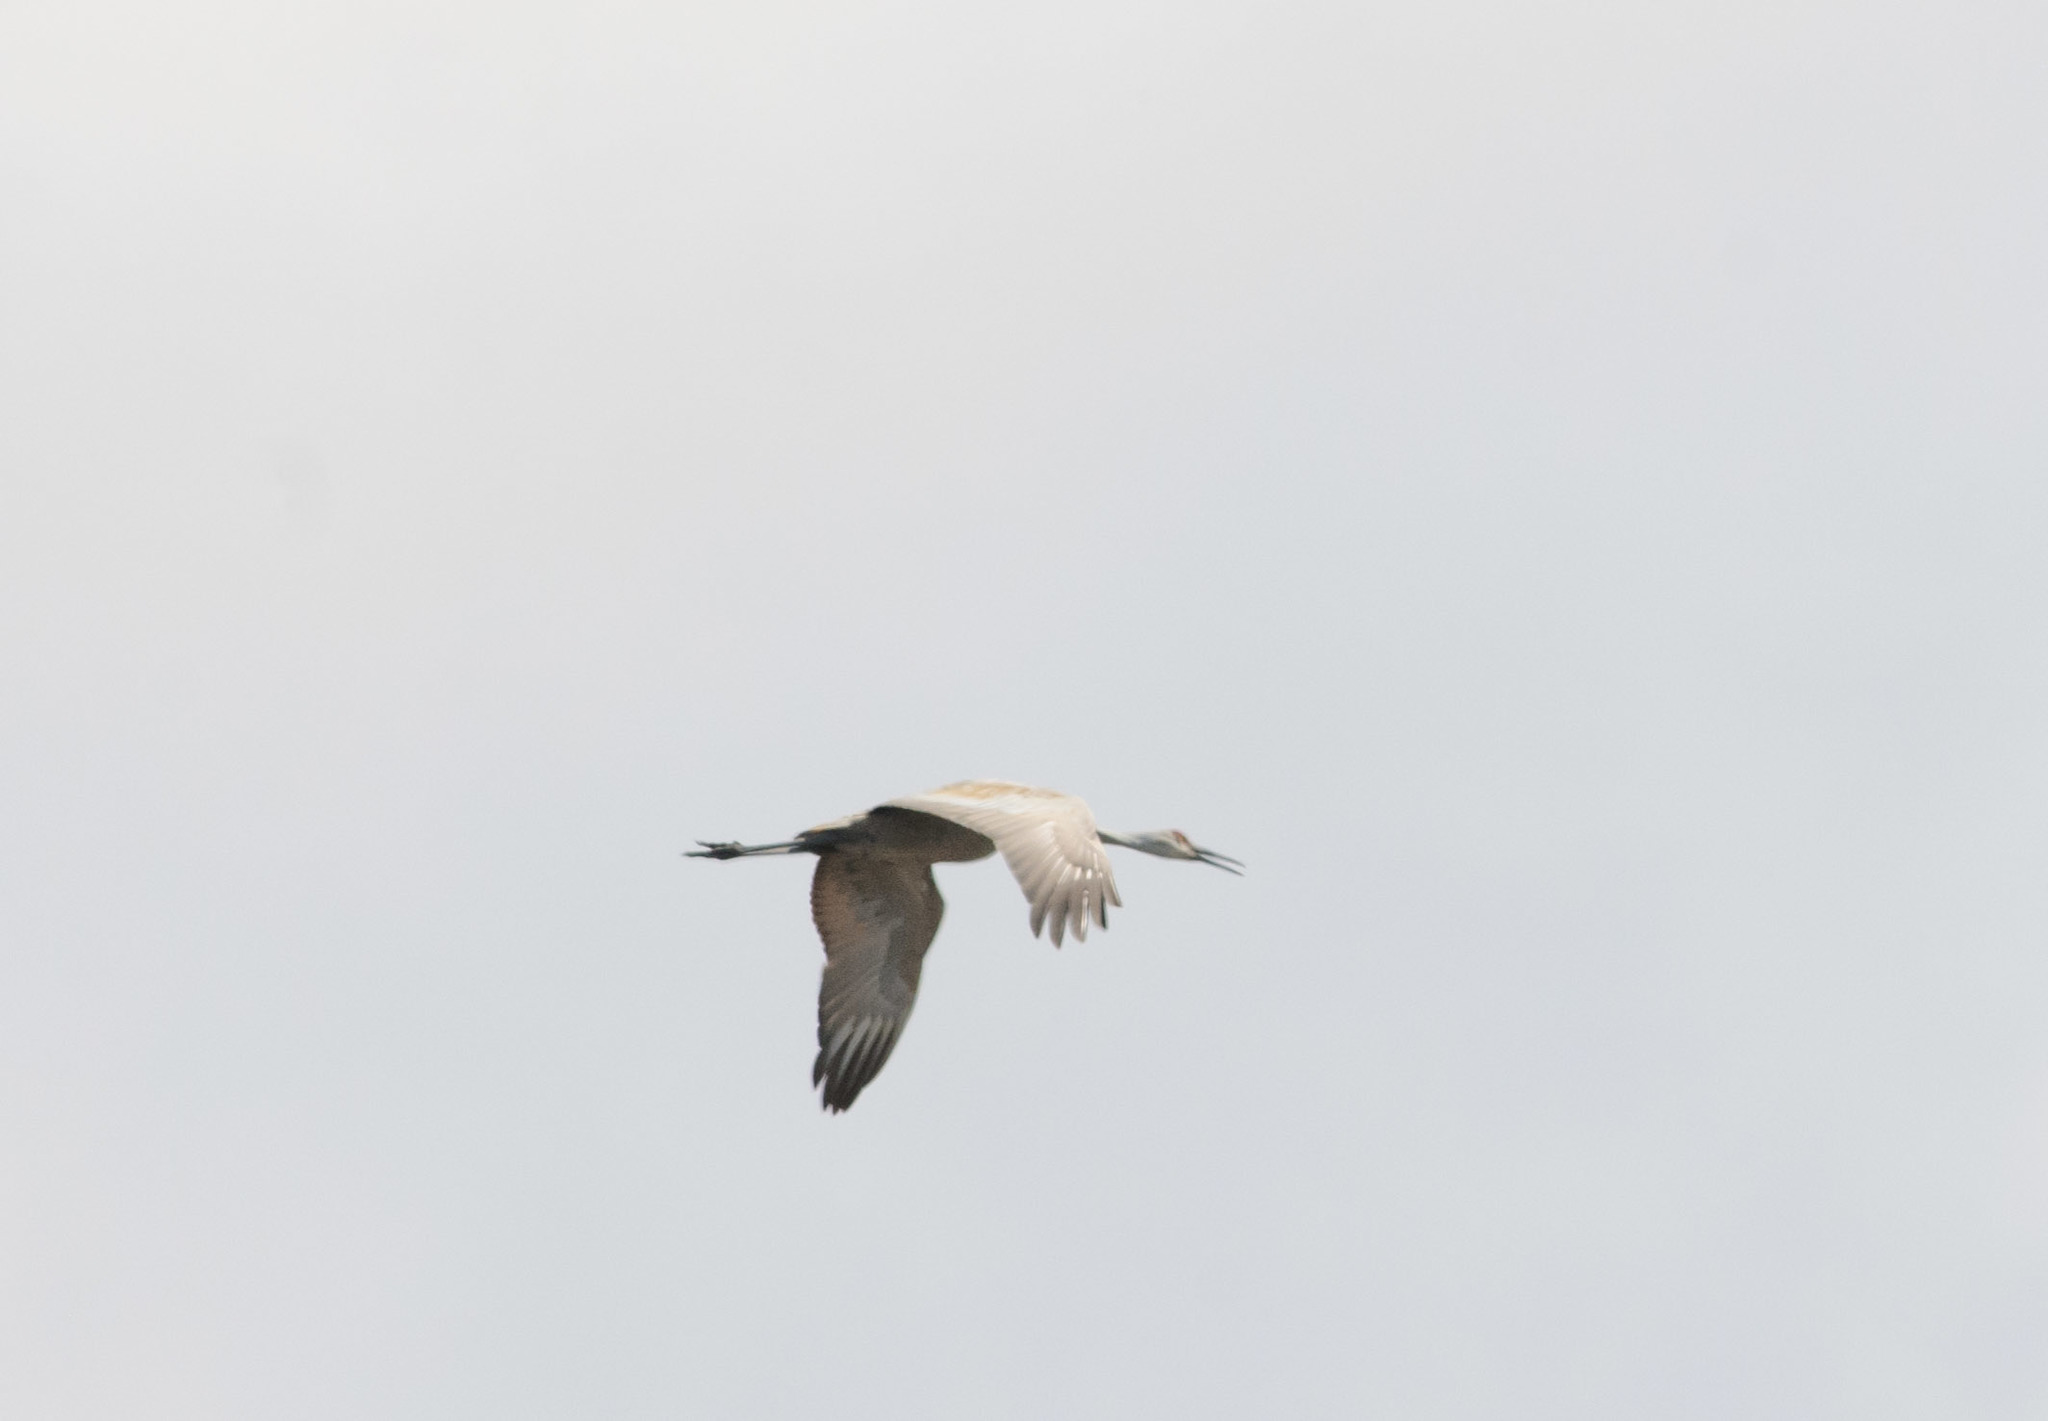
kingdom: Animalia
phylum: Chordata
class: Aves
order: Gruiformes
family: Gruidae
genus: Grus
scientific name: Grus canadensis
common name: Sandhill crane
